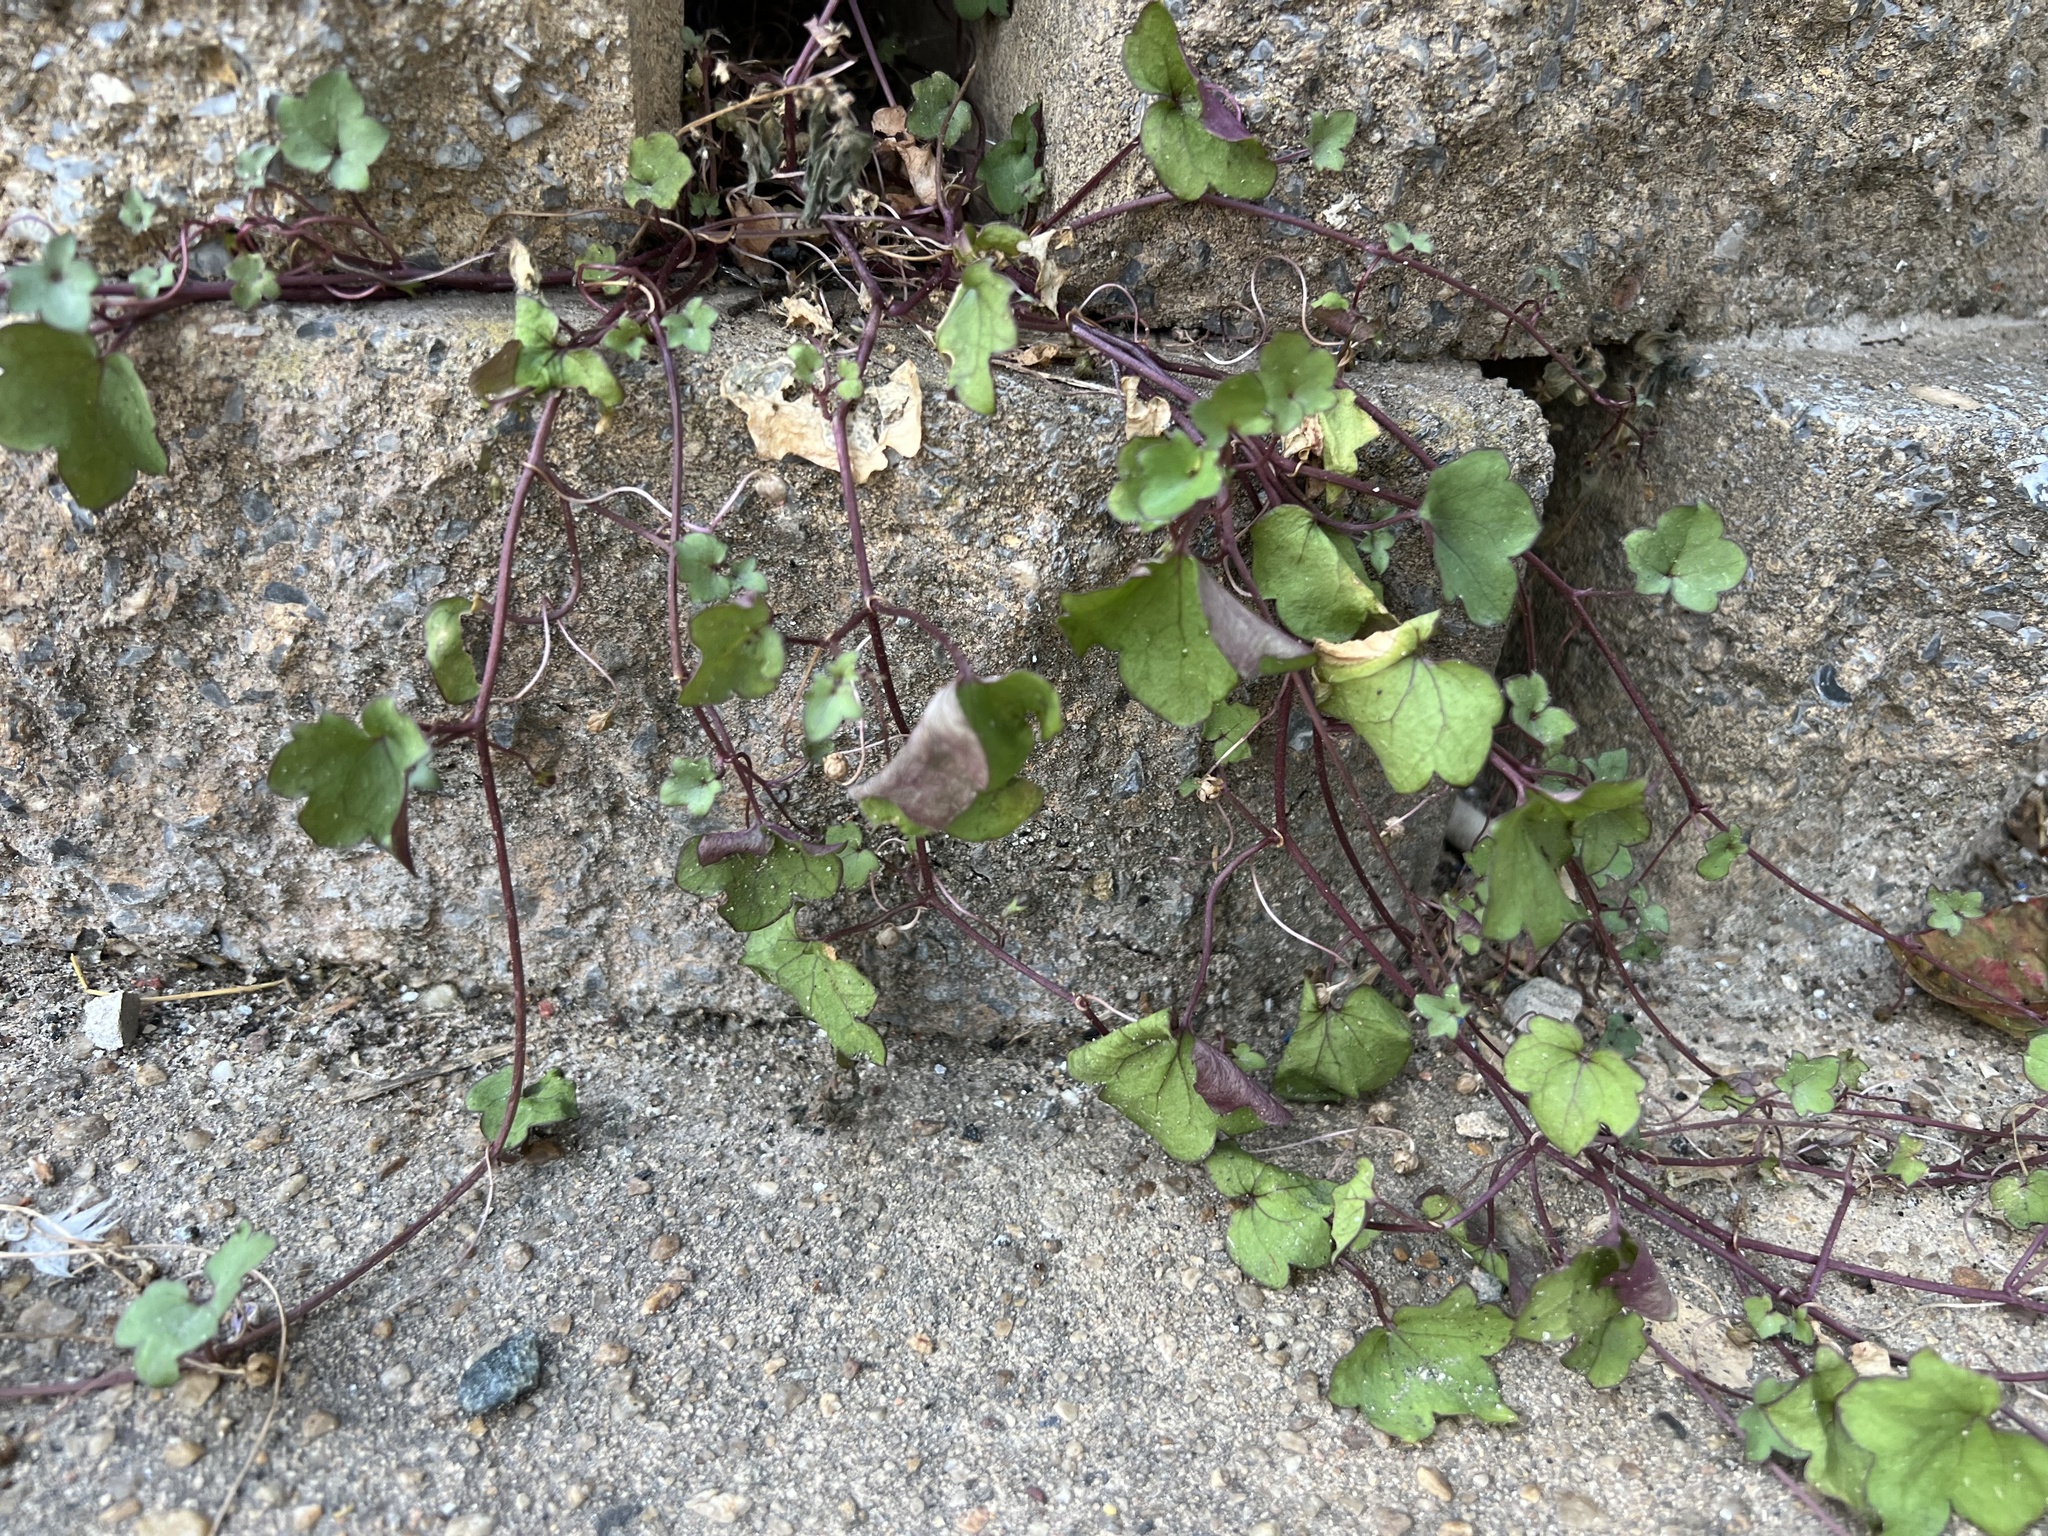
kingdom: Plantae
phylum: Tracheophyta
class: Magnoliopsida
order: Lamiales
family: Plantaginaceae
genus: Cymbalaria
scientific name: Cymbalaria muralis
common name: Ivy-leaved toadflax
